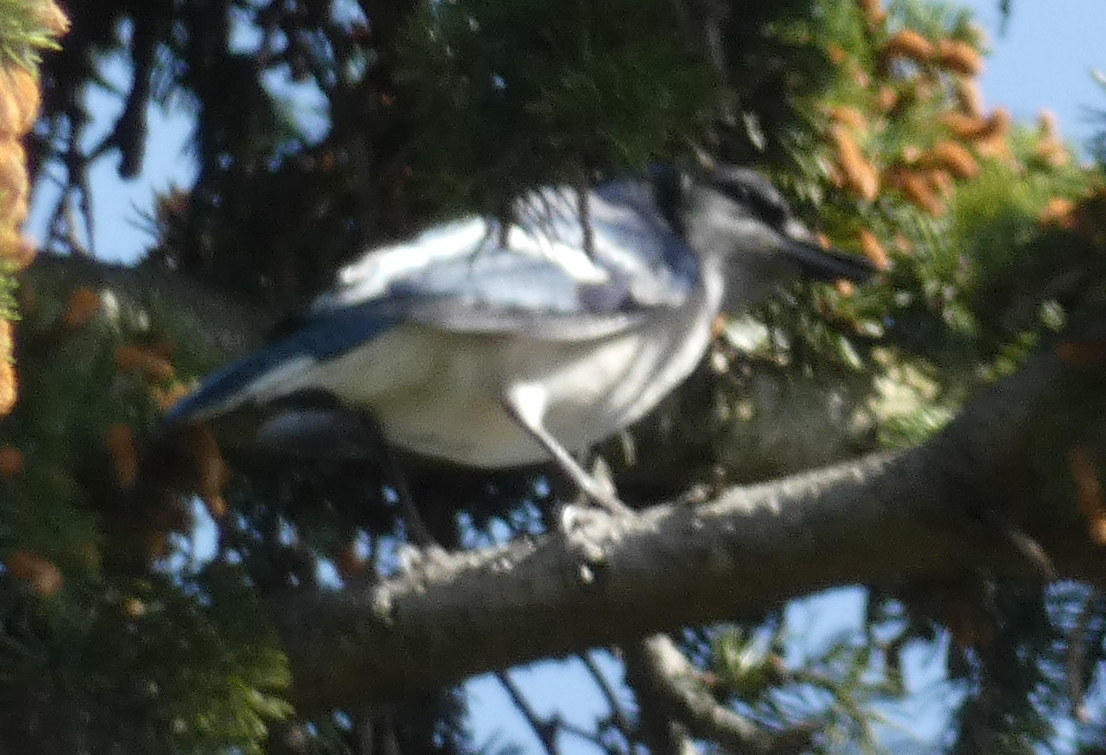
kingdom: Animalia
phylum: Chordata
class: Aves
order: Passeriformes
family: Corvidae
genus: Cyanocitta
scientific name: Cyanocitta cristata
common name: Blue jay
